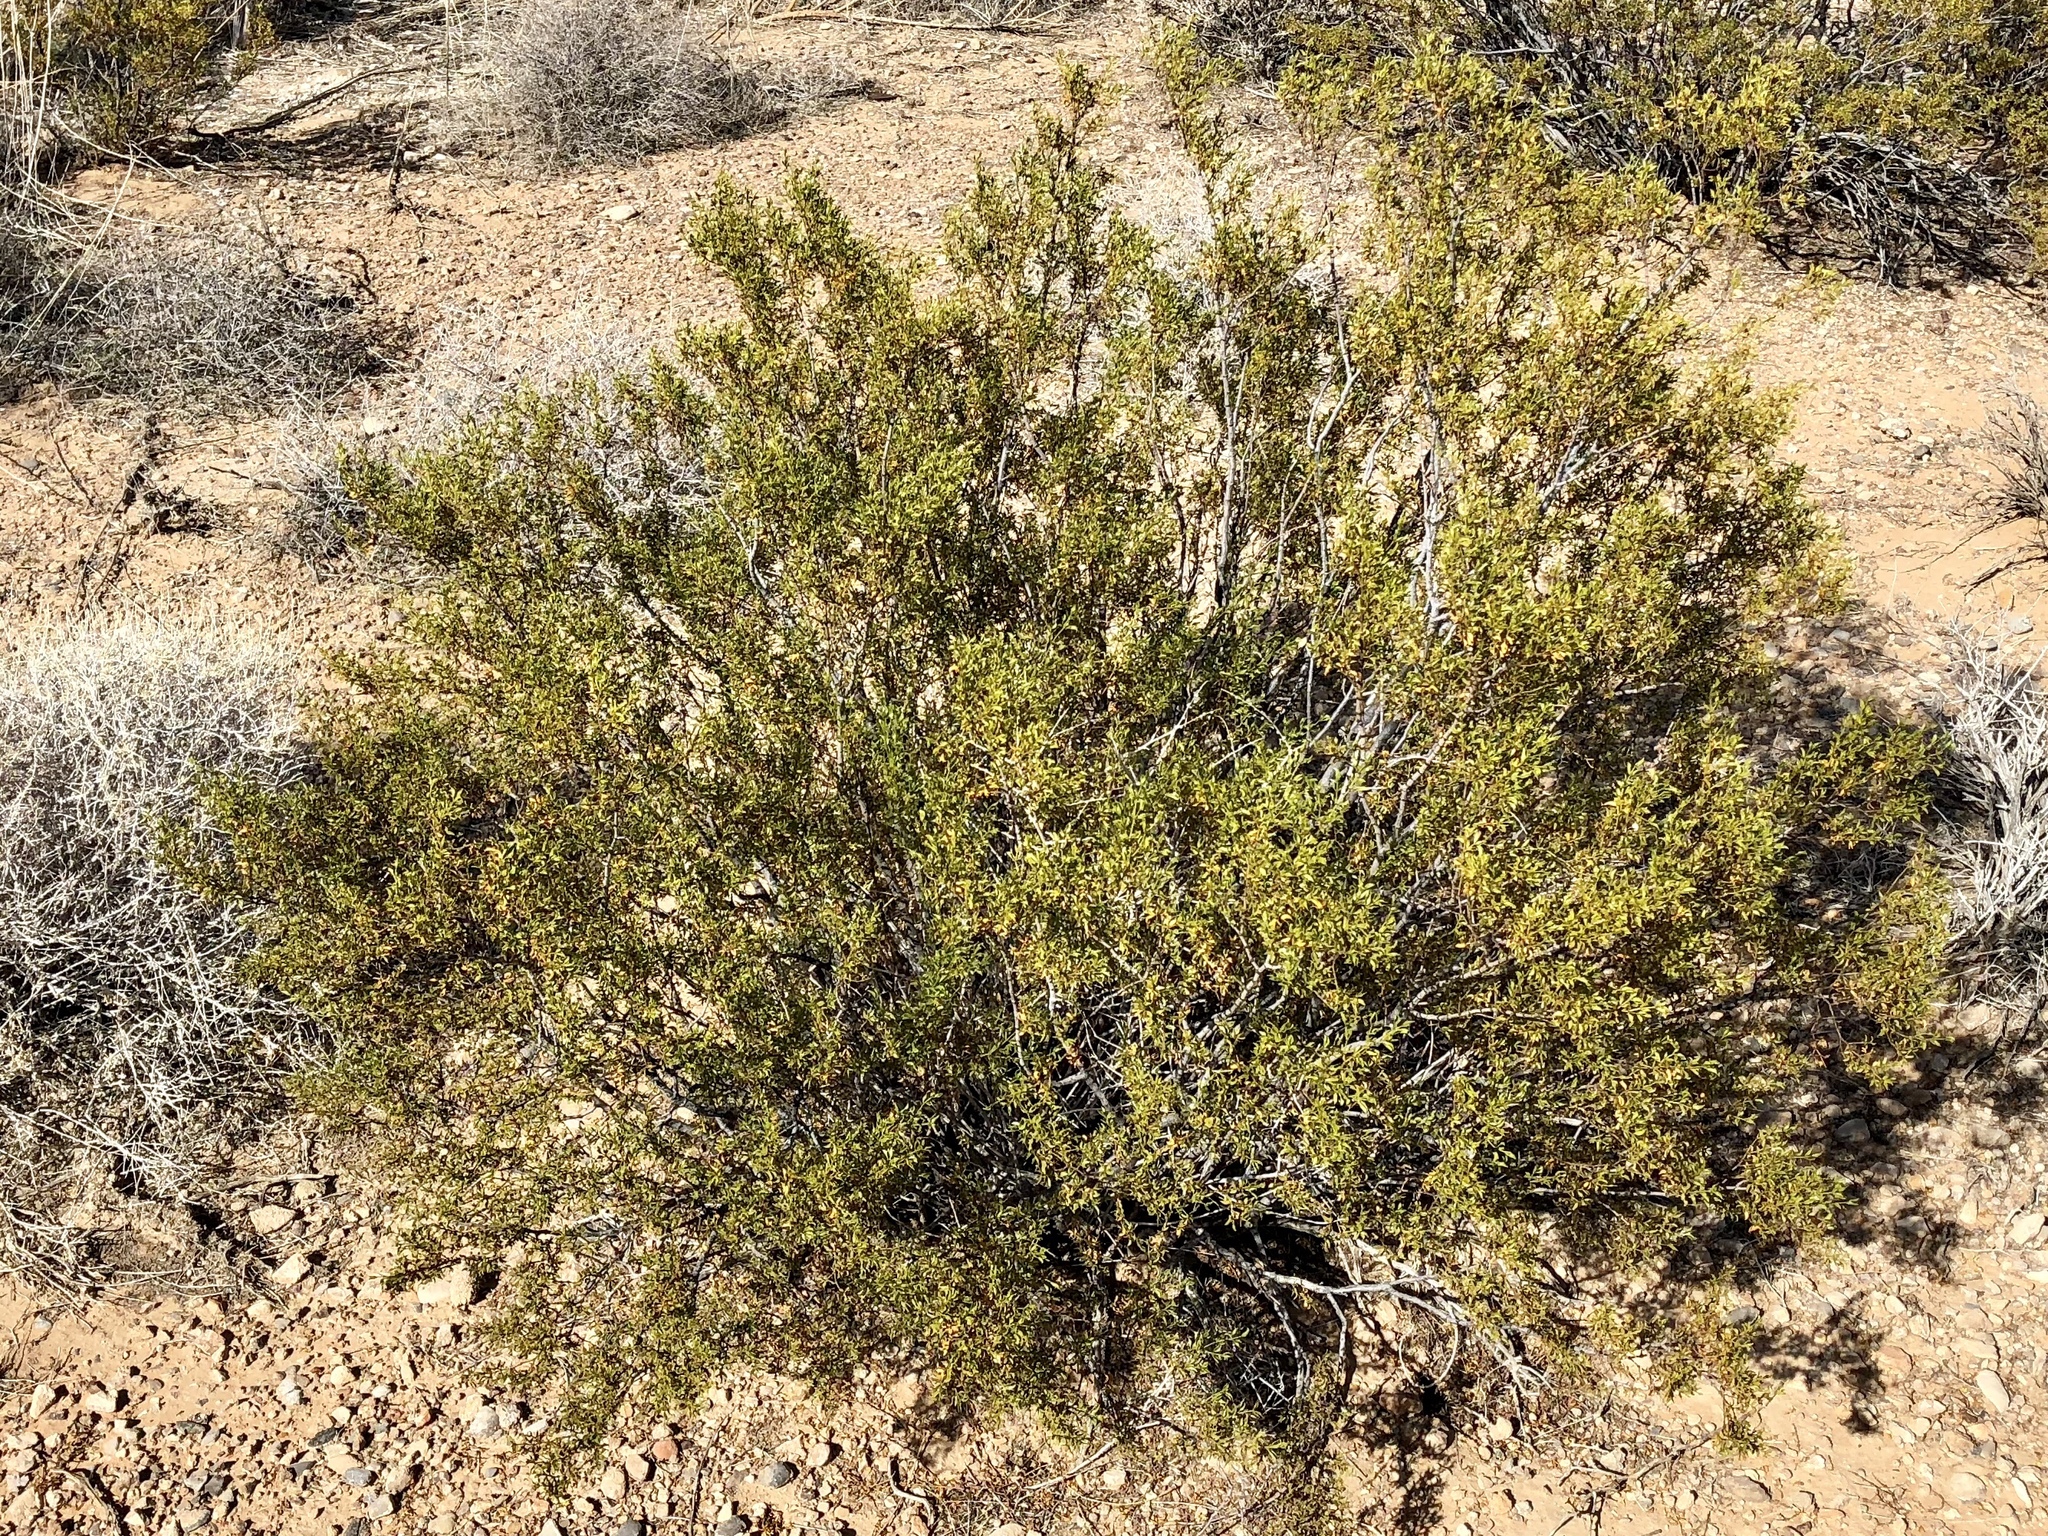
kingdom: Plantae
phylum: Tracheophyta
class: Magnoliopsida
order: Zygophyllales
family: Zygophyllaceae
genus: Larrea
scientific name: Larrea tridentata
